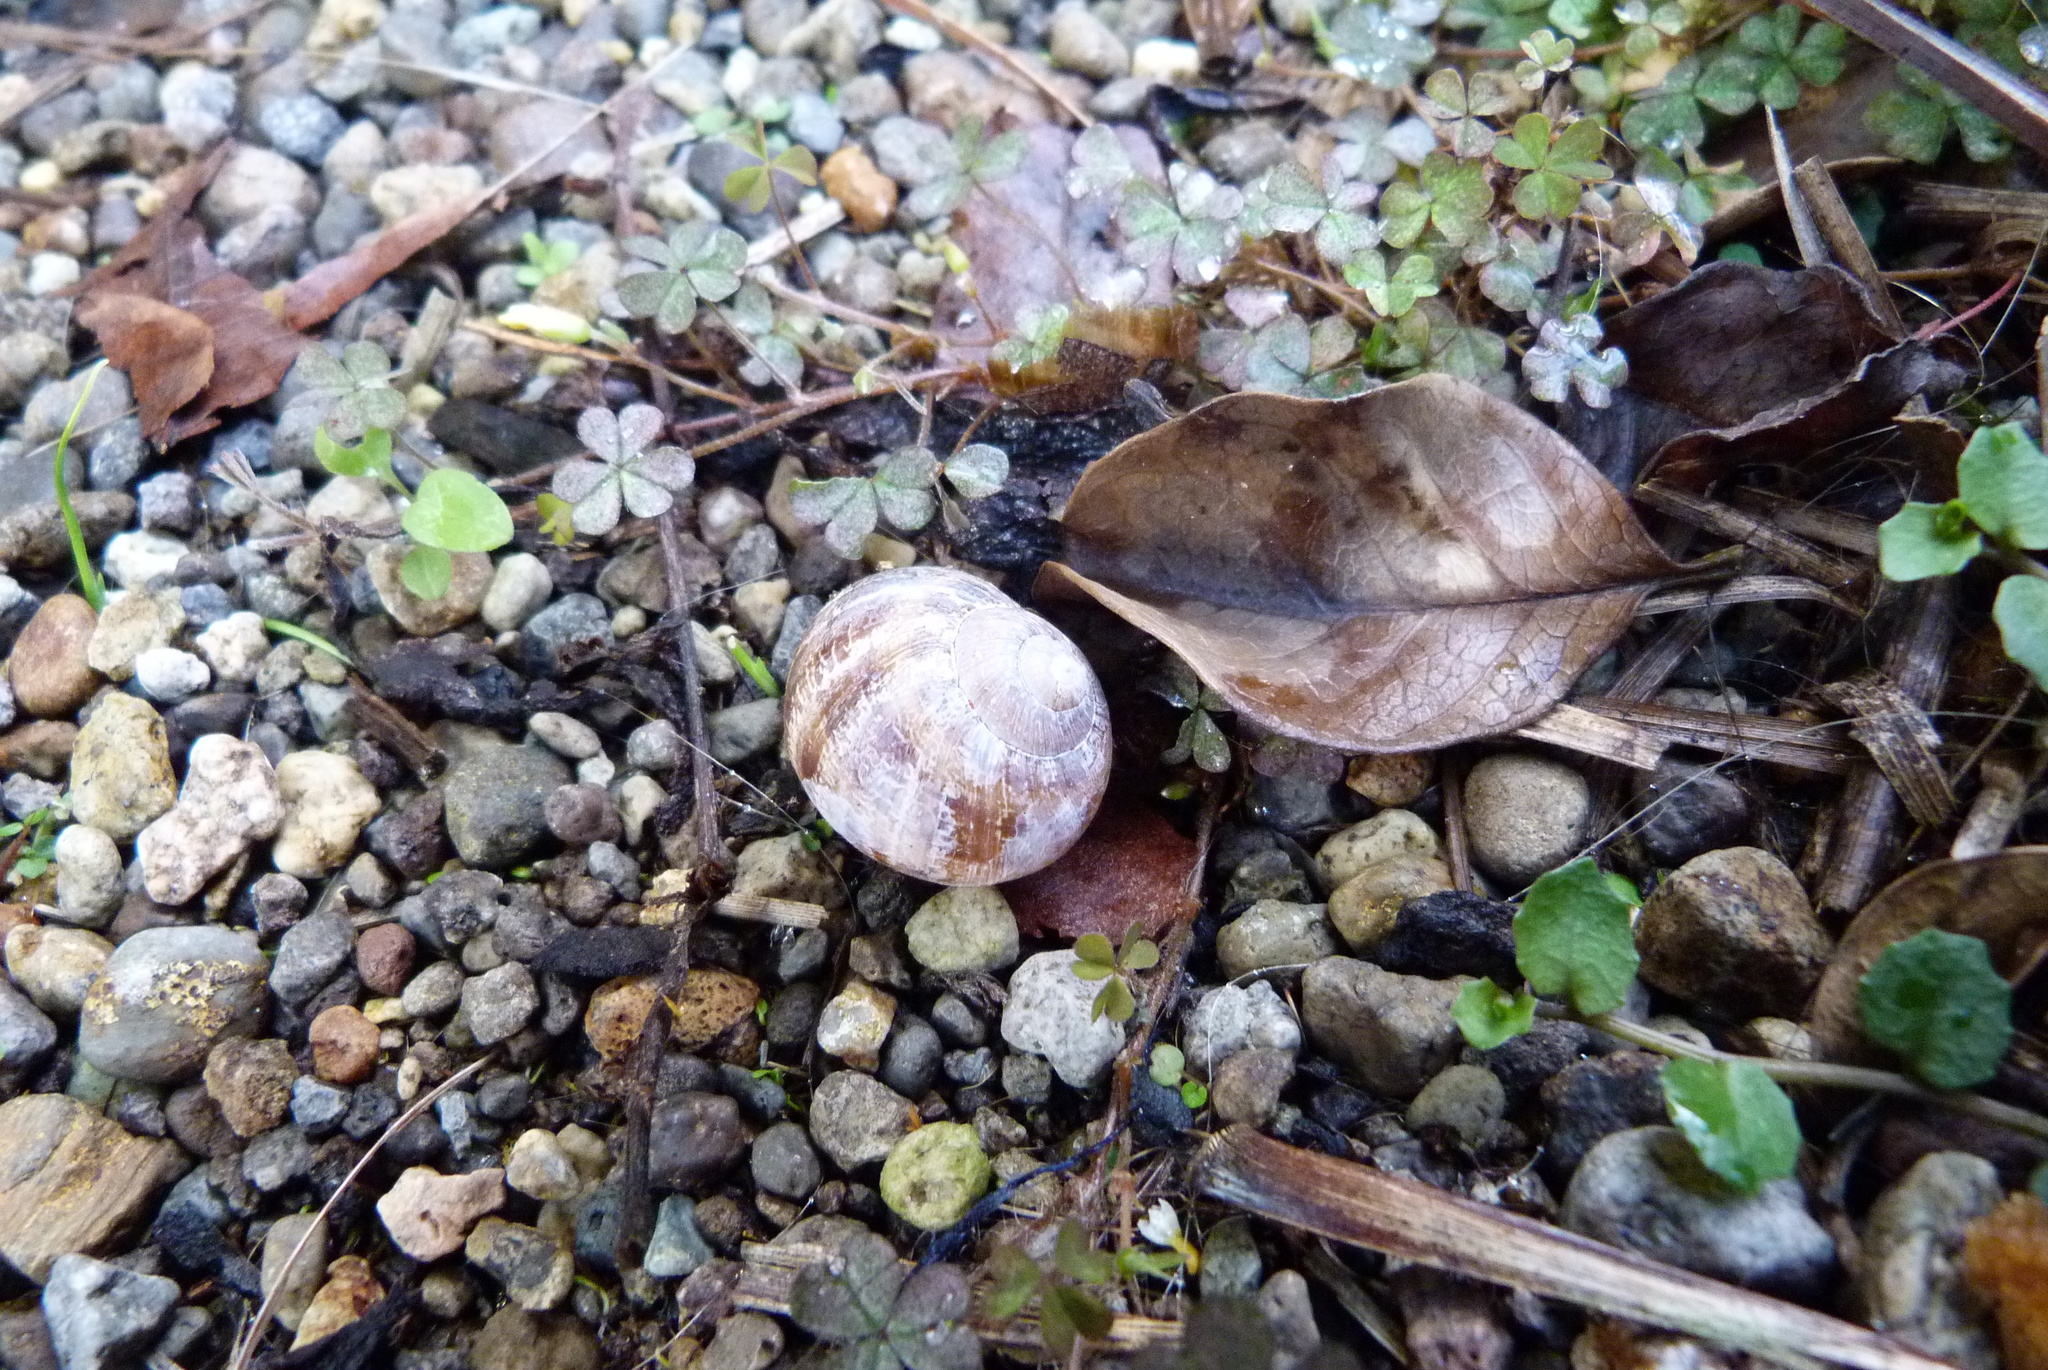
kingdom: Animalia
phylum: Mollusca
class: Gastropoda
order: Stylommatophora
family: Helicidae
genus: Cornu
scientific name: Cornu aspersum
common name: Brown garden snail
